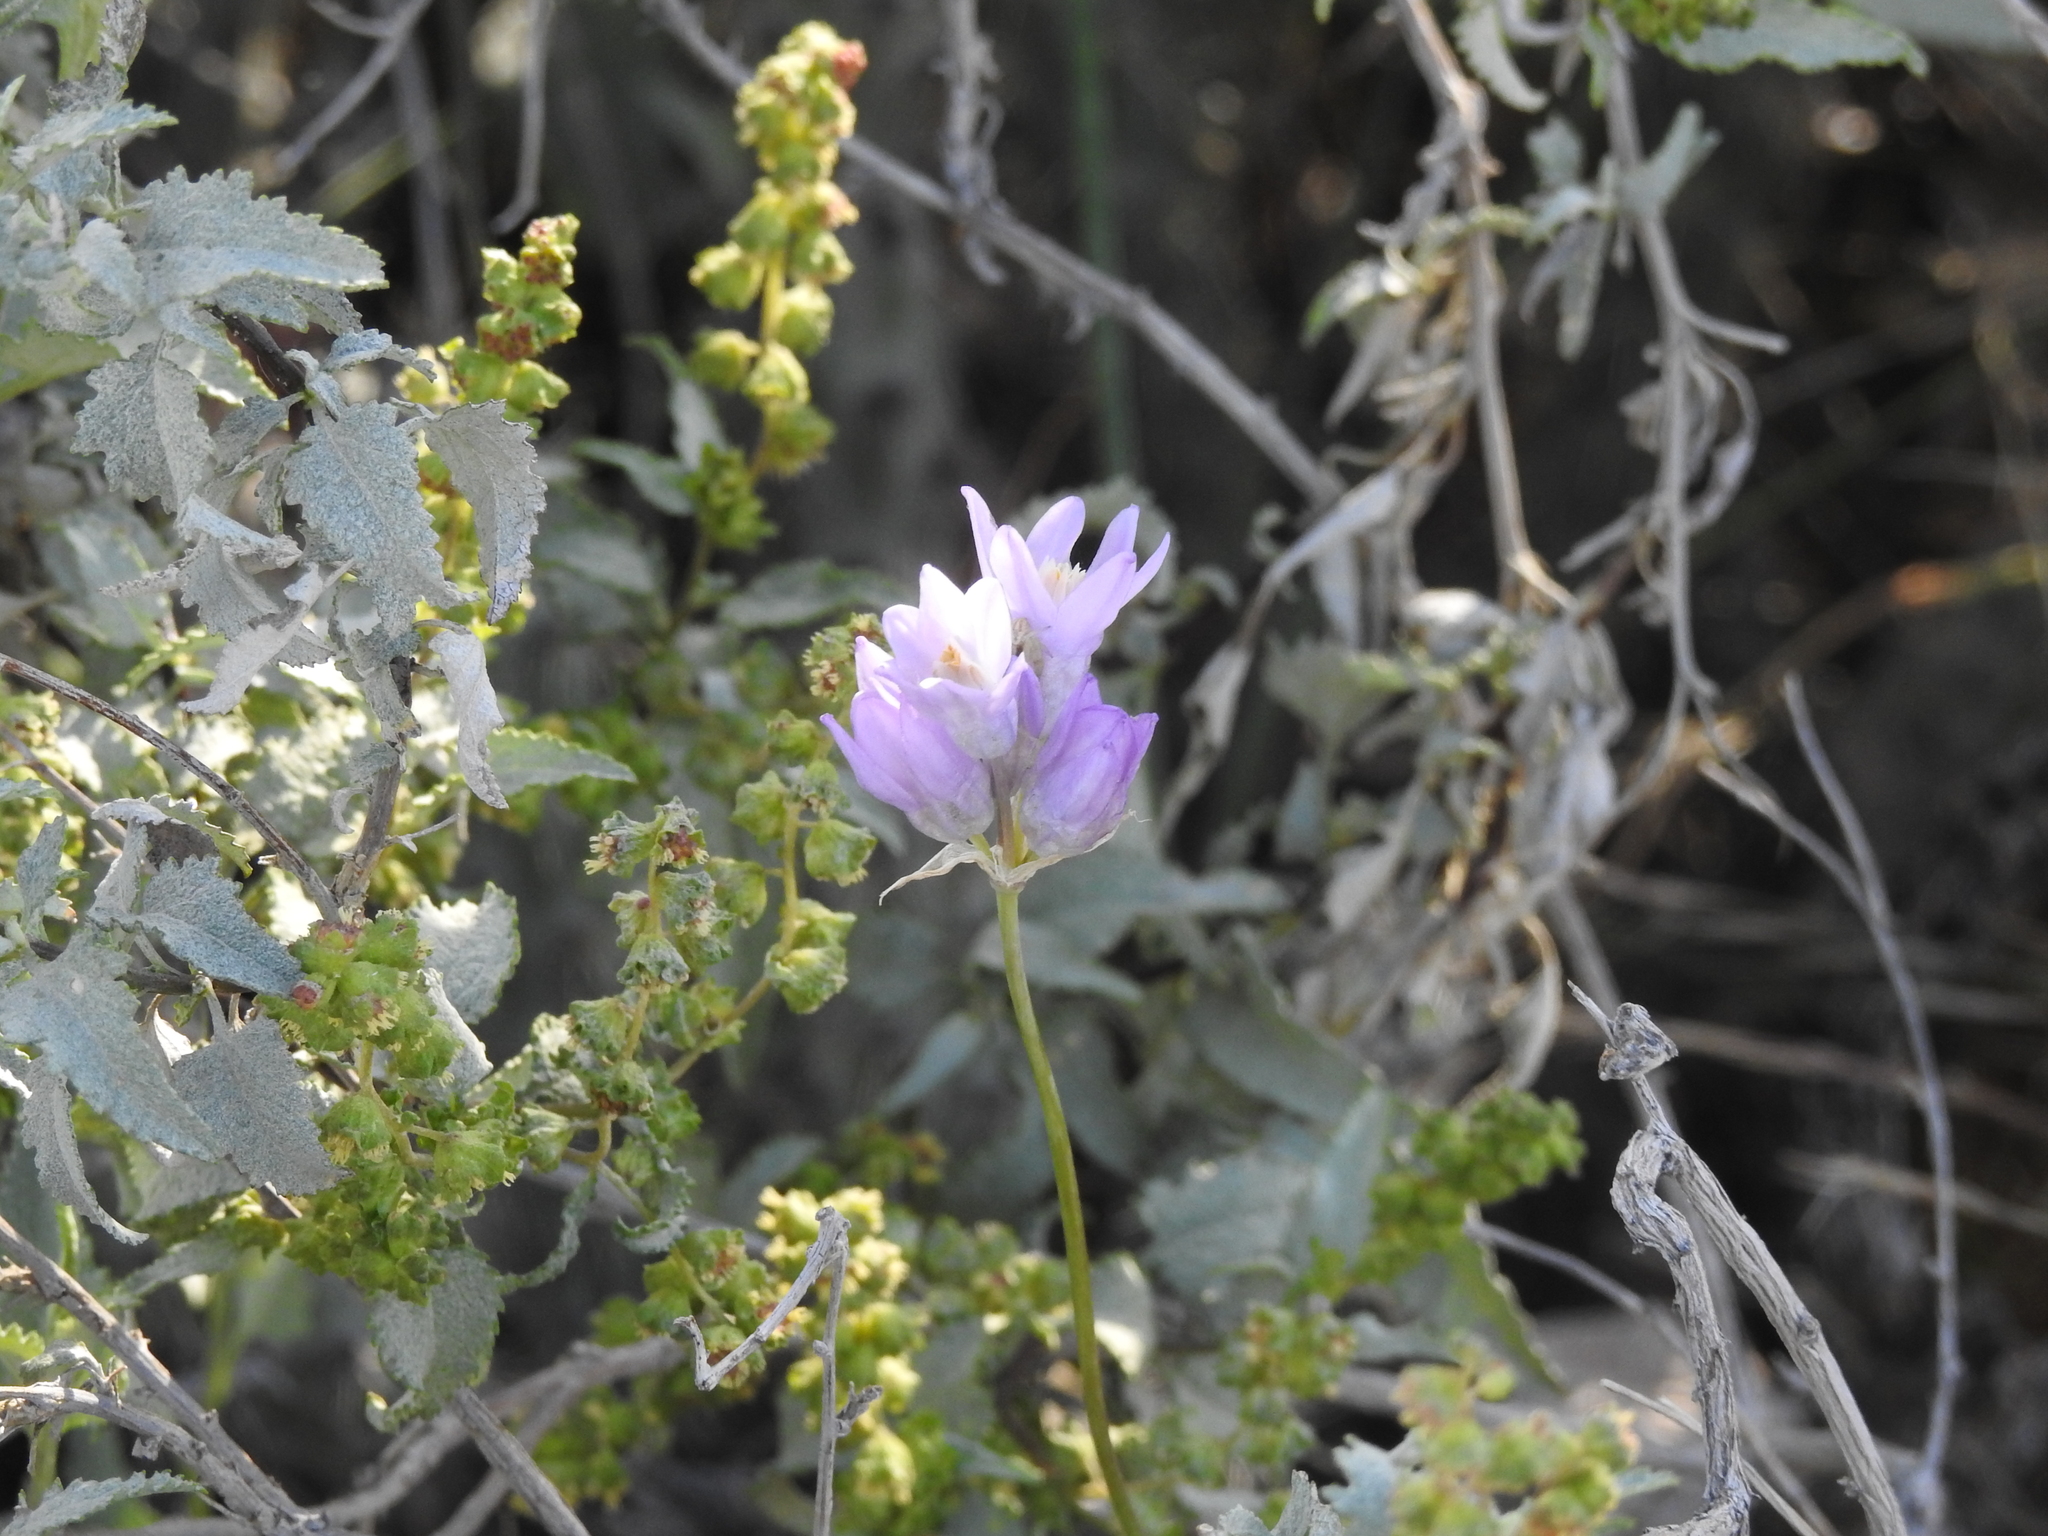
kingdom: Plantae
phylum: Tracheophyta
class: Liliopsida
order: Asparagales
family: Asparagaceae
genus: Dipterostemon
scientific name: Dipterostemon capitatus
